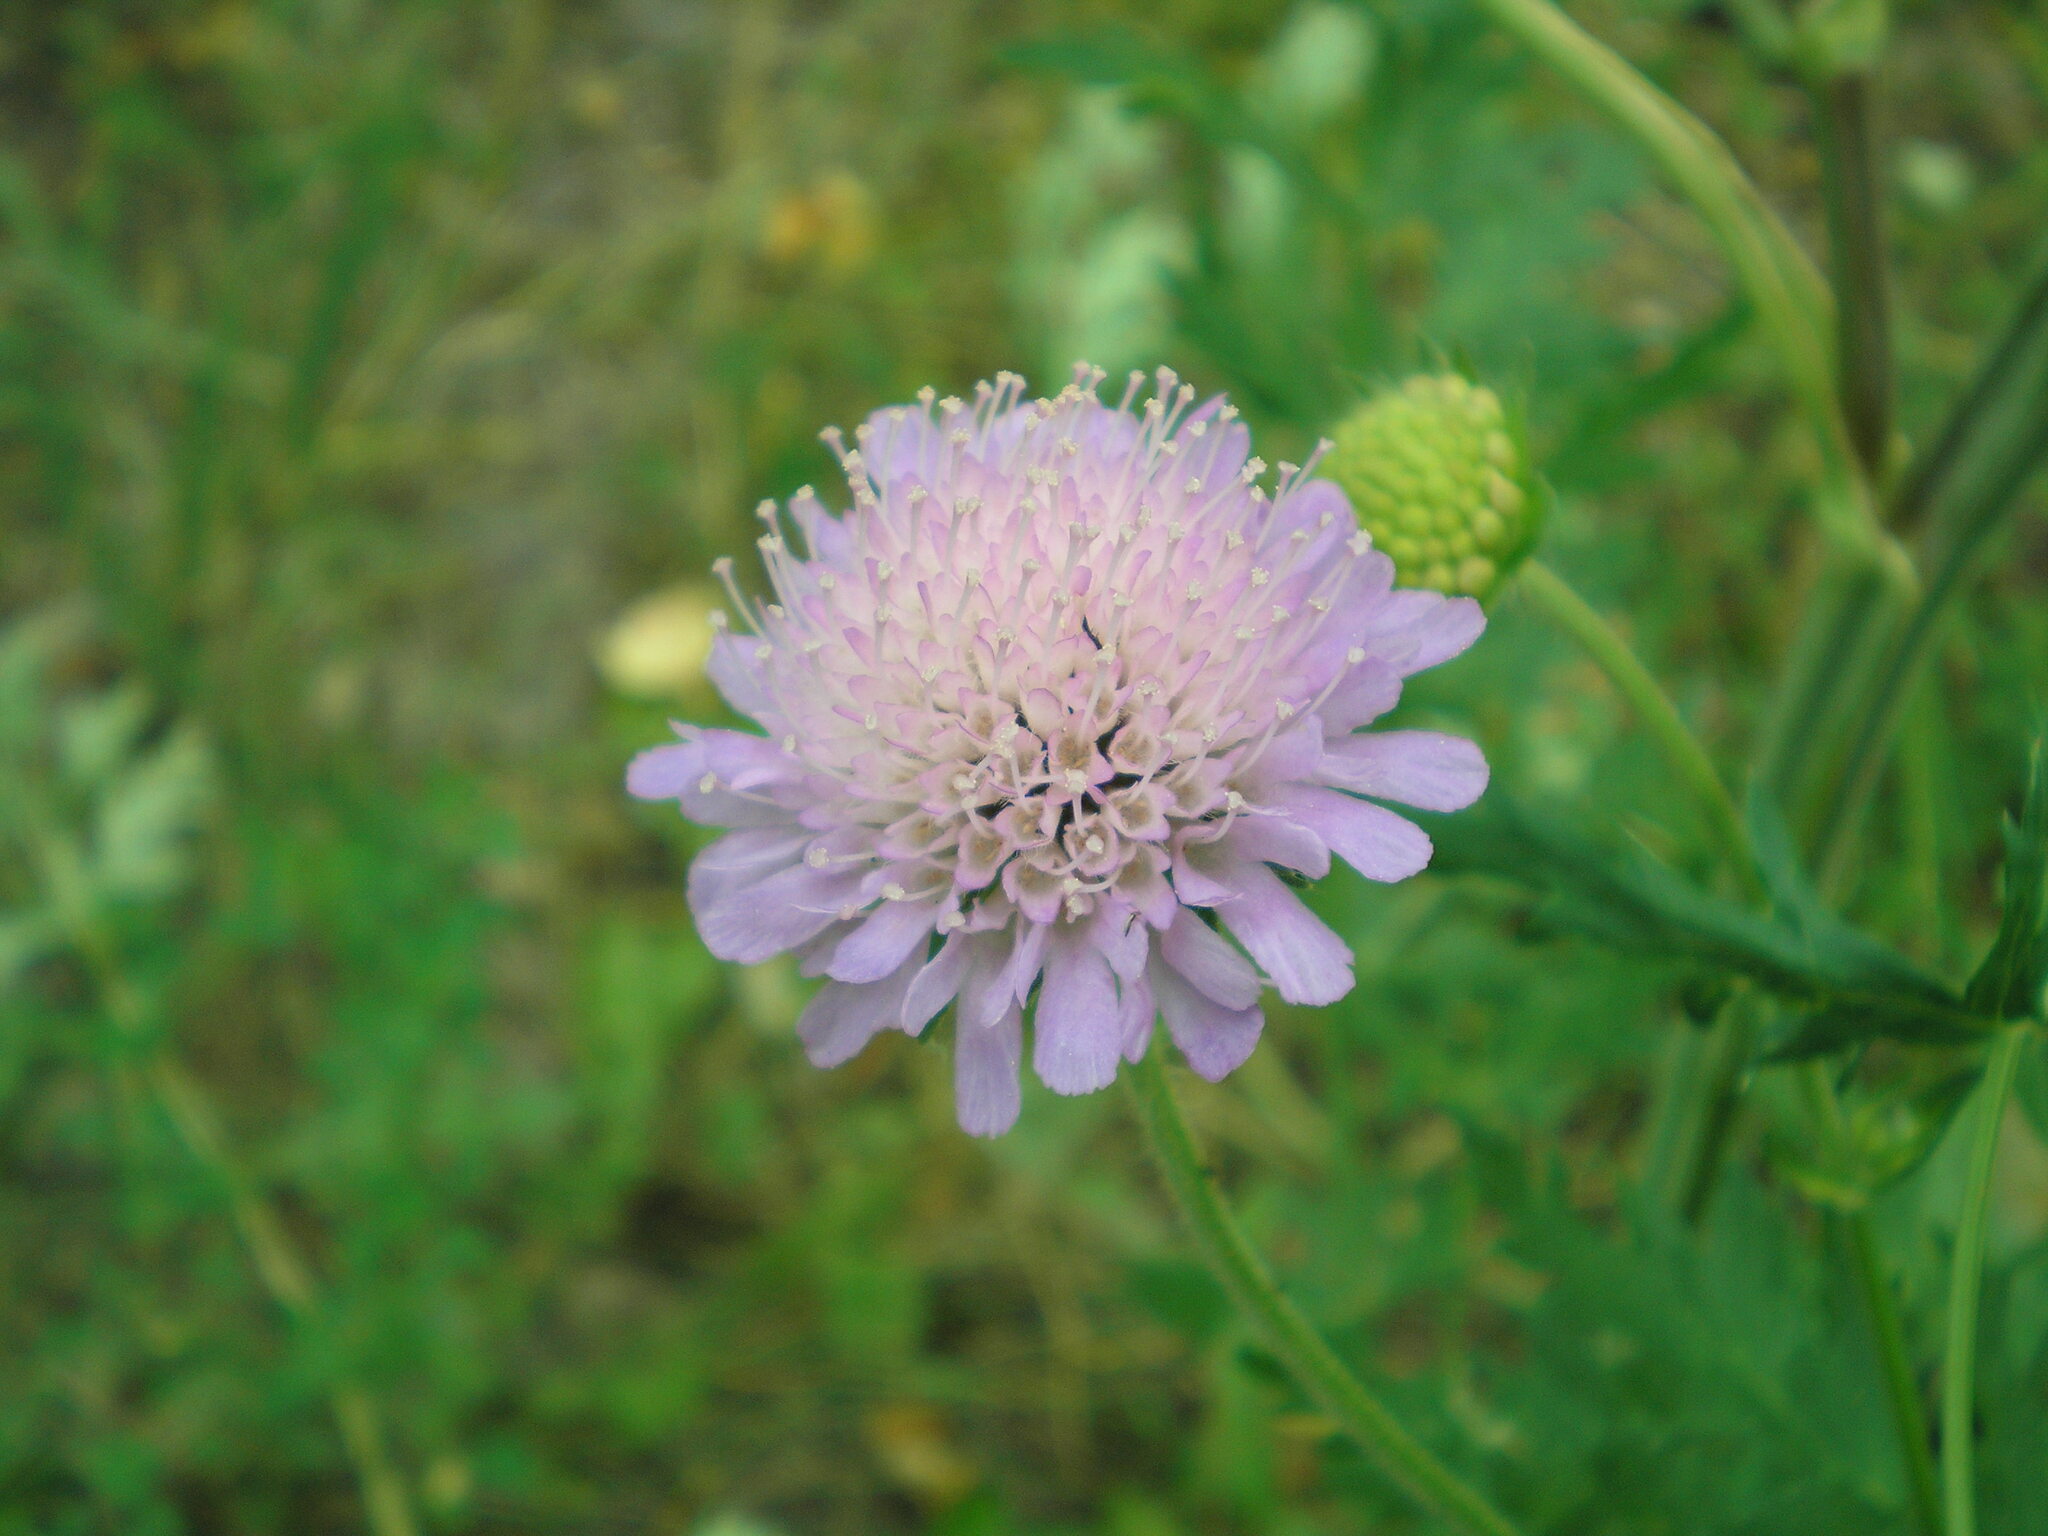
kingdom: Plantae
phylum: Tracheophyta
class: Magnoliopsida
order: Dipsacales
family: Caprifoliaceae
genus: Knautia
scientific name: Knautia arvensis
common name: Field scabiosa
